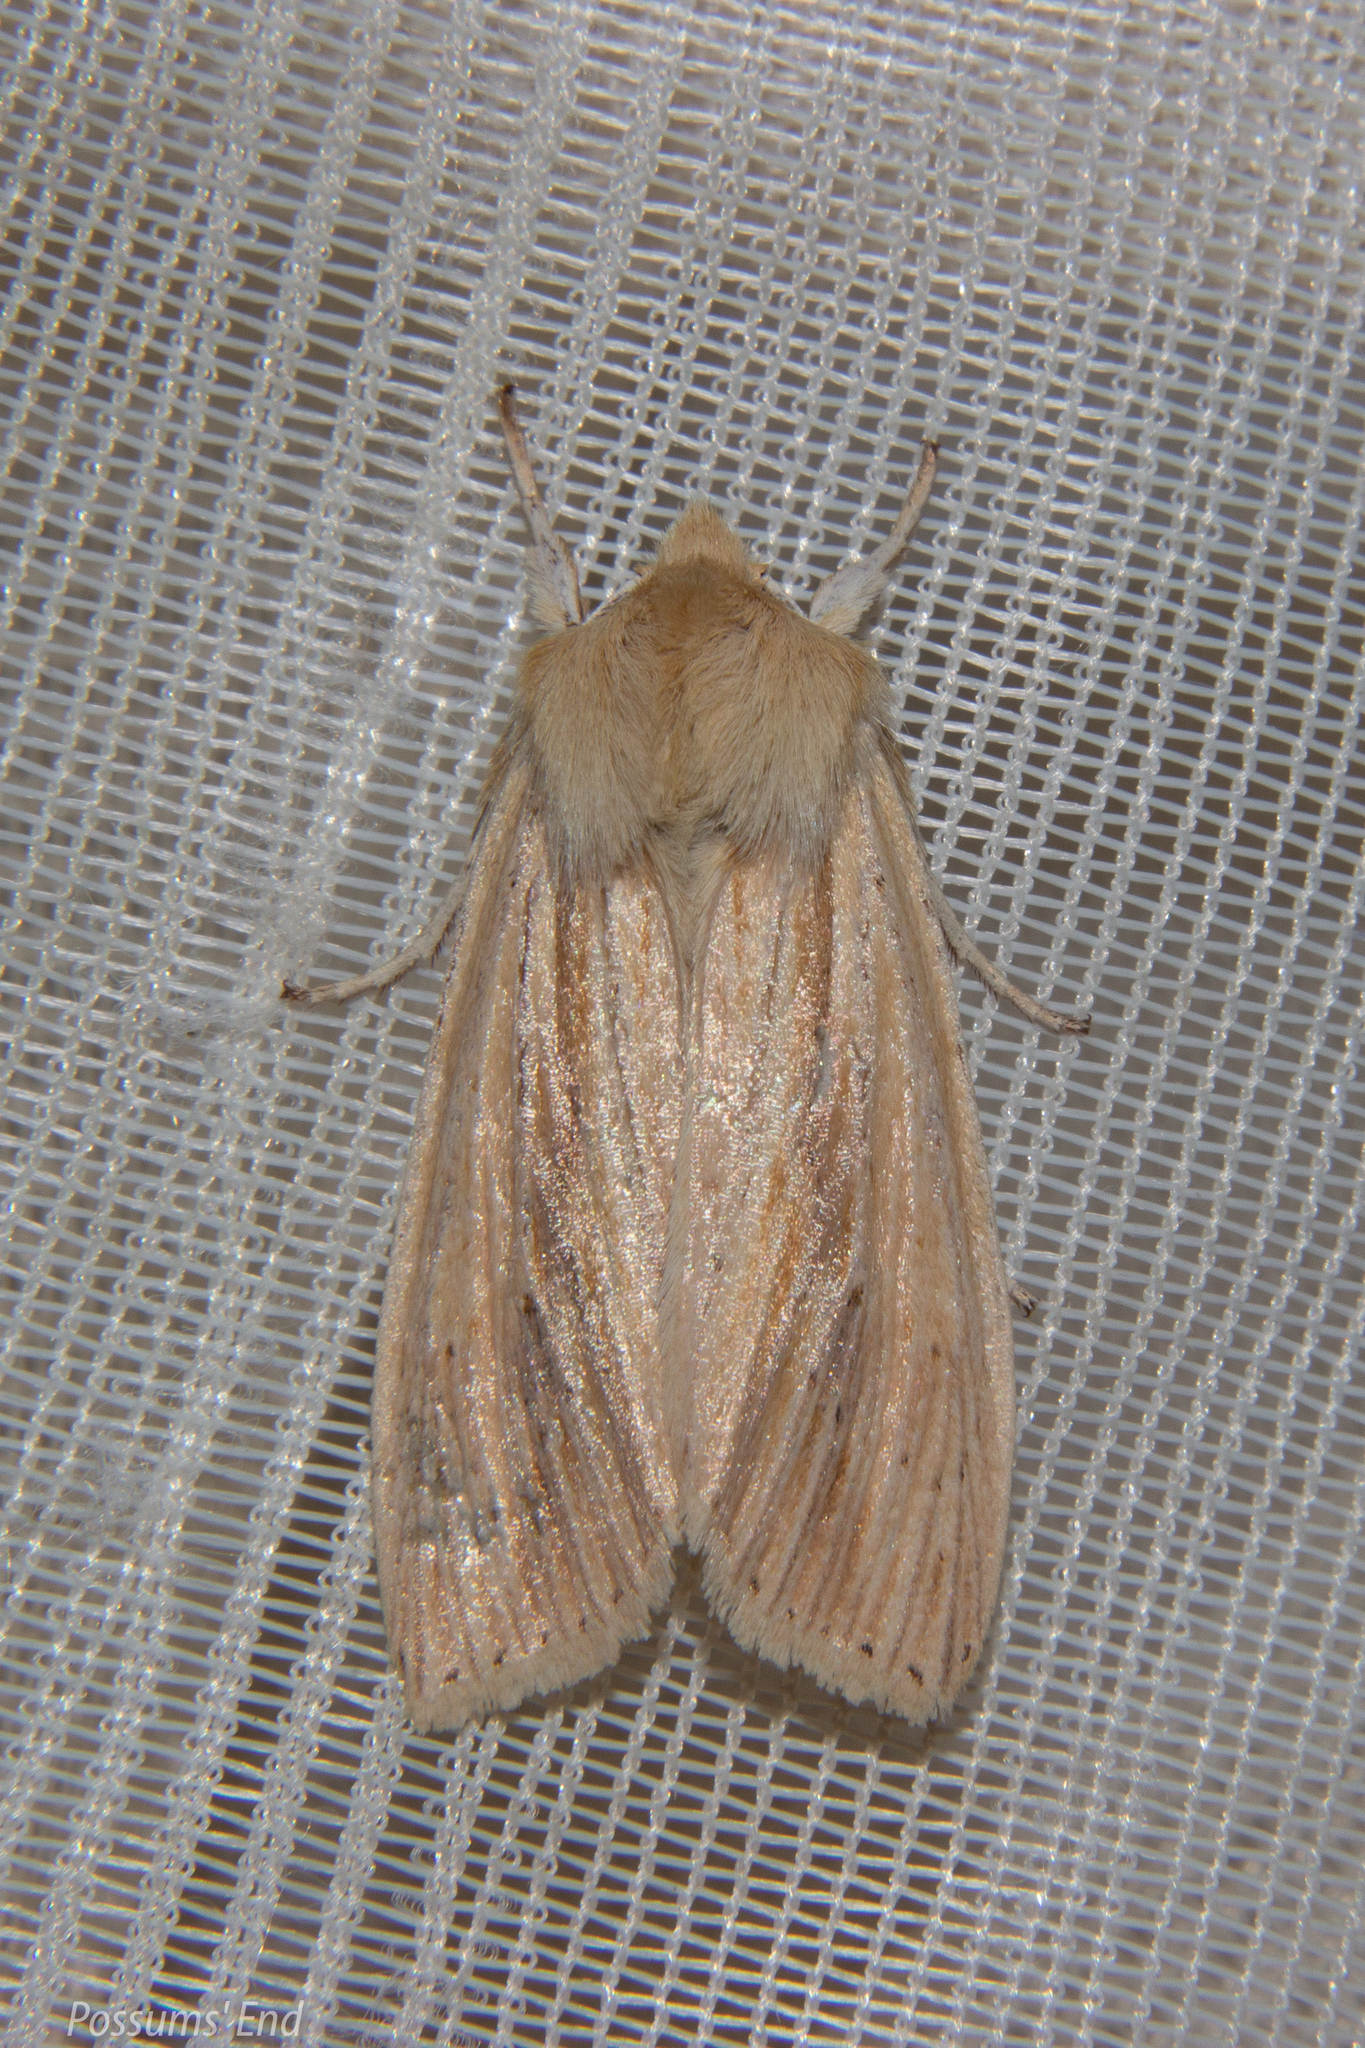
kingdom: Animalia
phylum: Arthropoda
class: Insecta
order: Lepidoptera
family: Noctuidae
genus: Ichneutica
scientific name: Ichneutica semivittata
